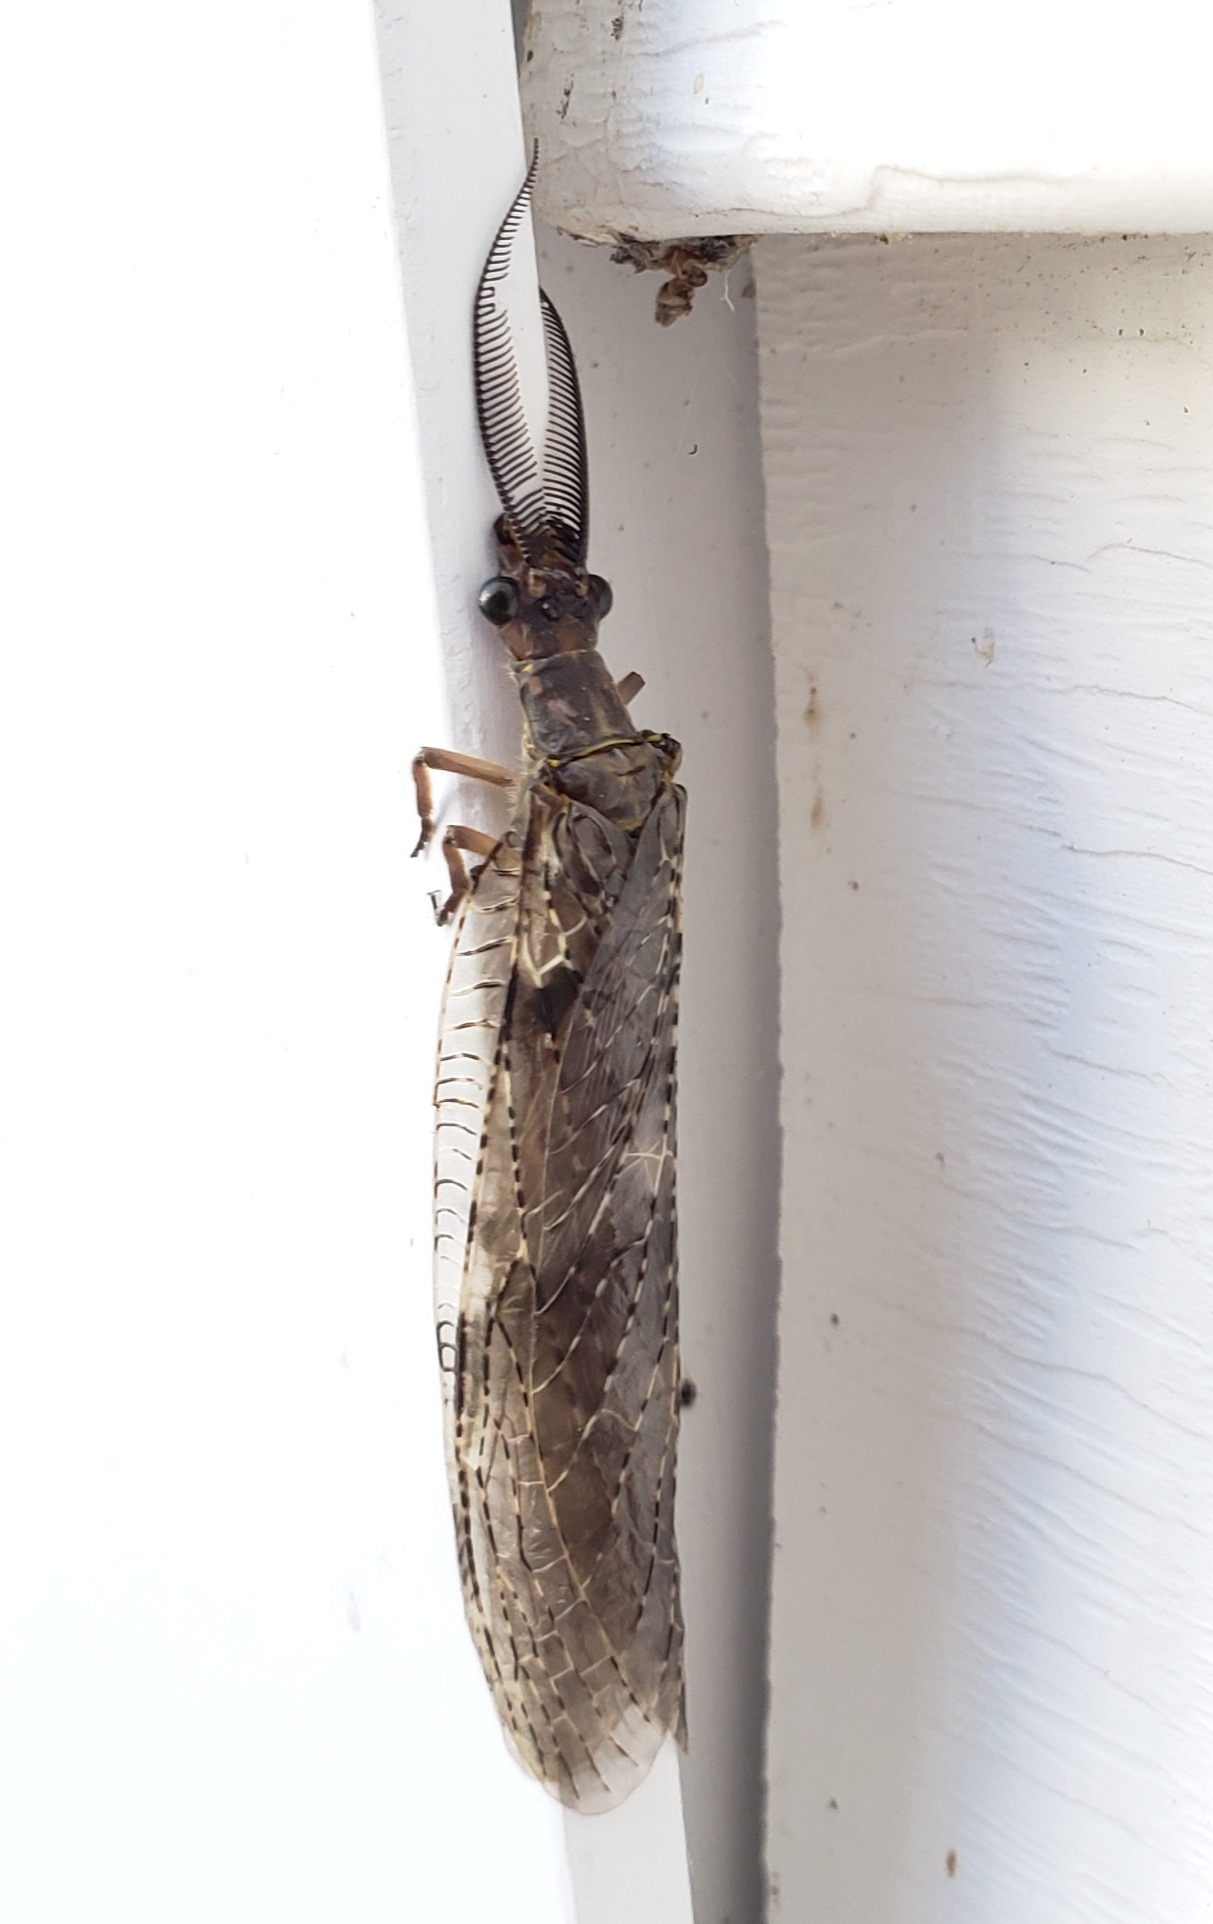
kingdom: Animalia
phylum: Arthropoda
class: Insecta
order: Megaloptera
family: Corydalidae
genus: Chauliodes
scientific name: Chauliodes pectinicornis
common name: Summer fishfly
